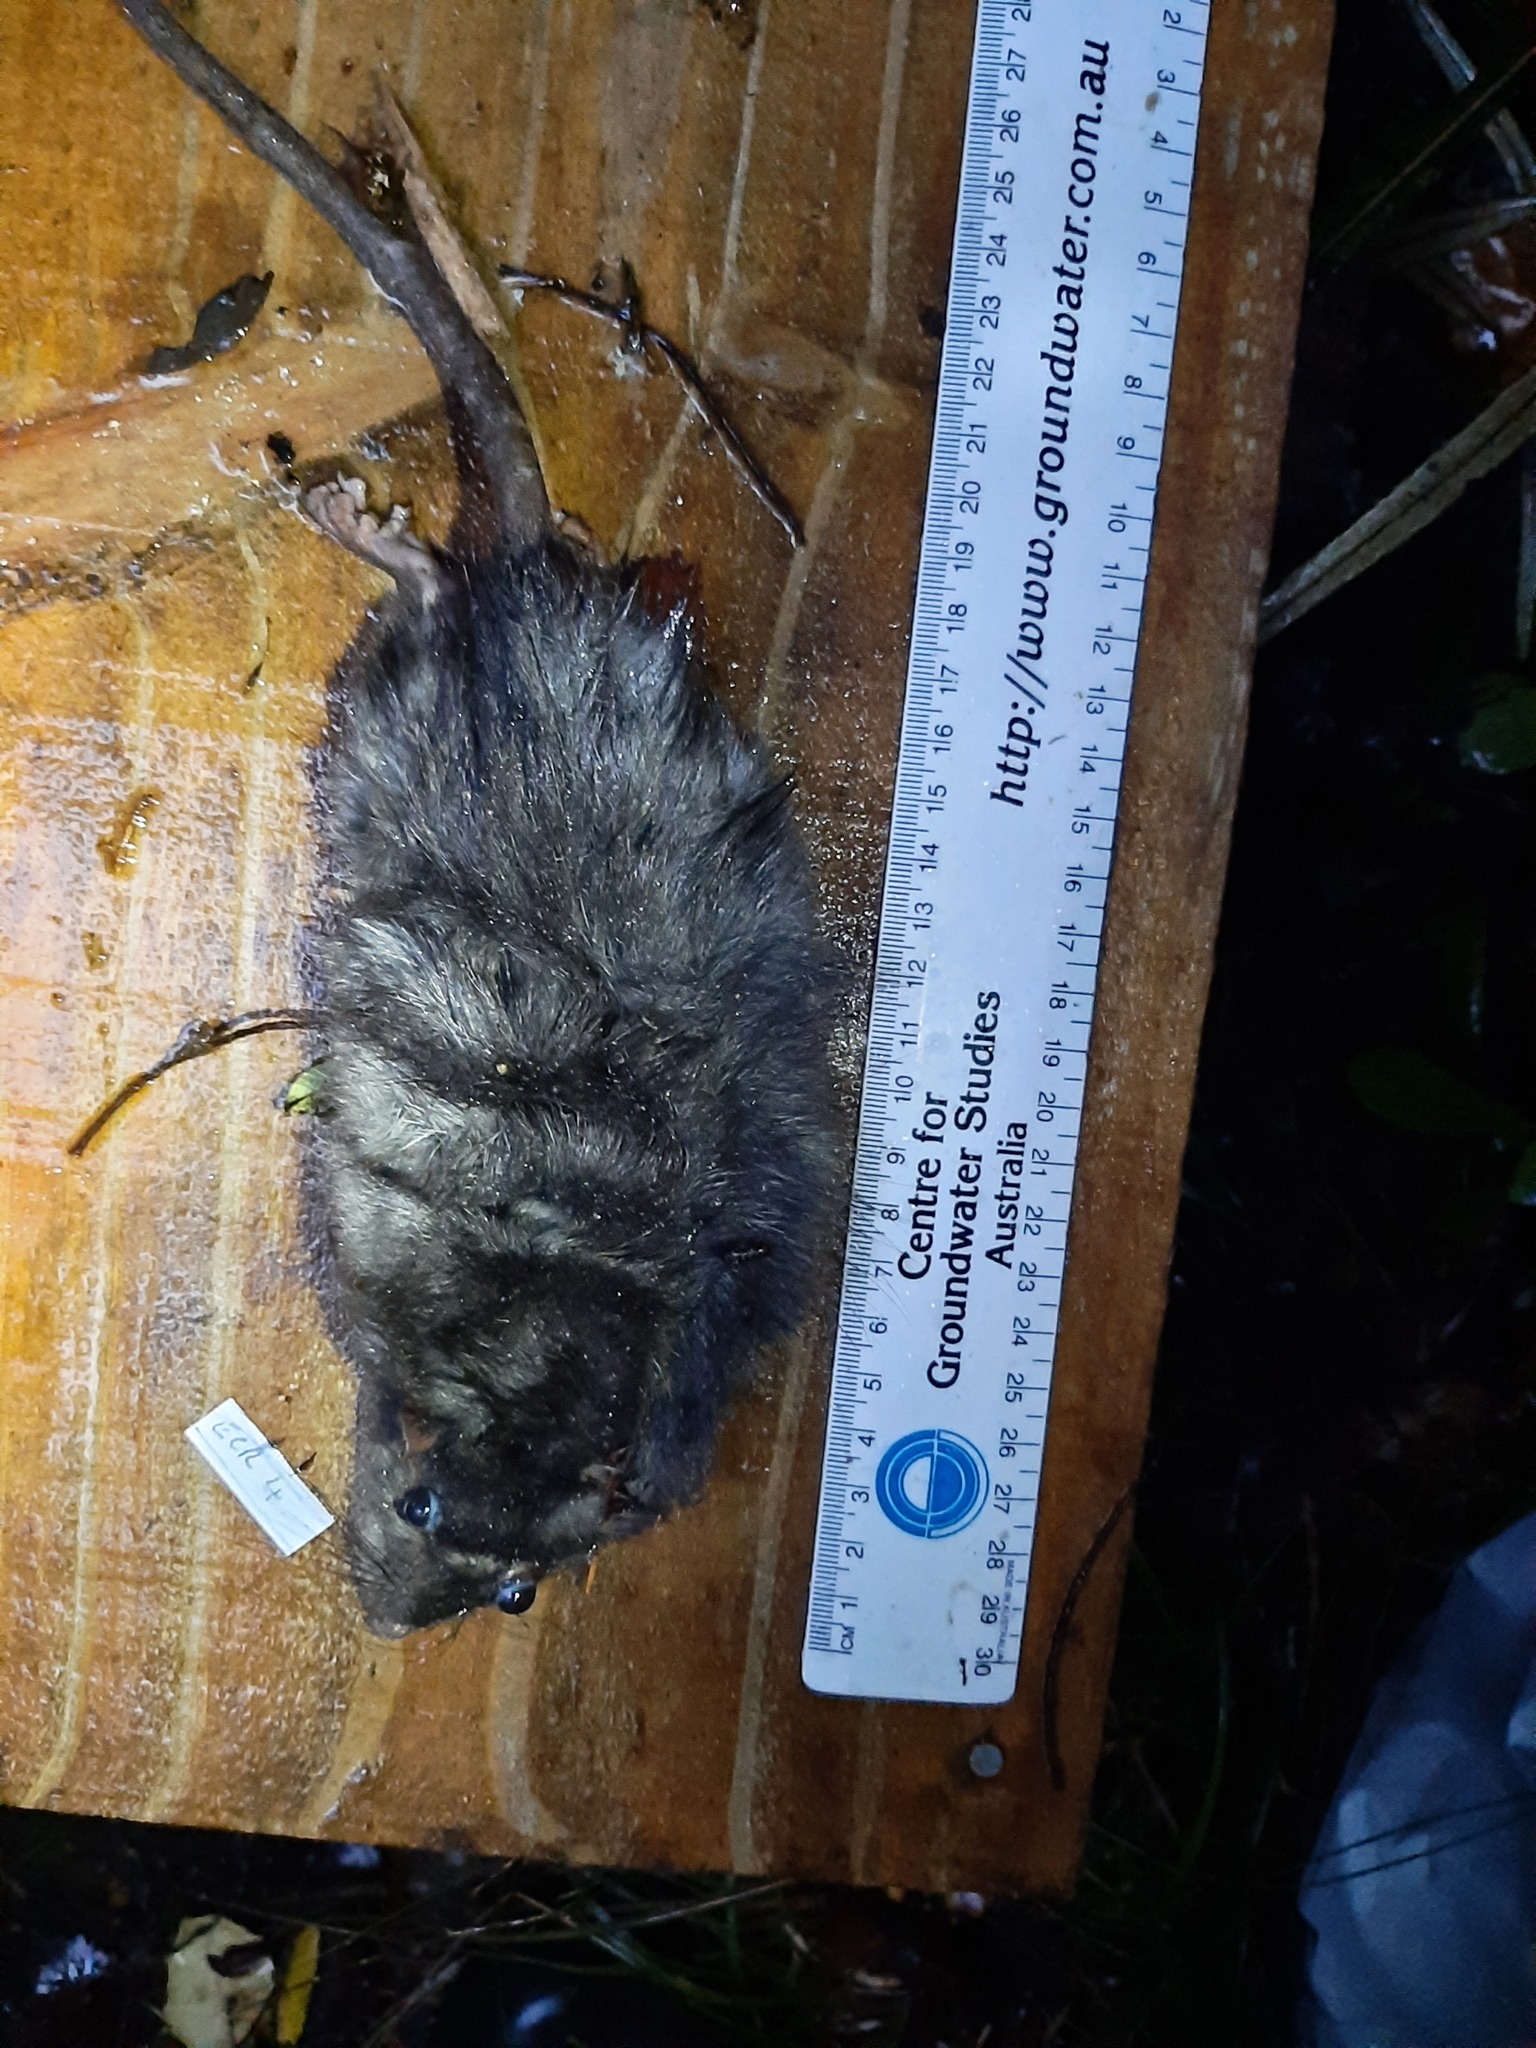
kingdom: Animalia
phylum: Chordata
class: Mammalia
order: Rodentia
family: Muridae
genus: Rattus
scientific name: Rattus rattus
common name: Black rat
